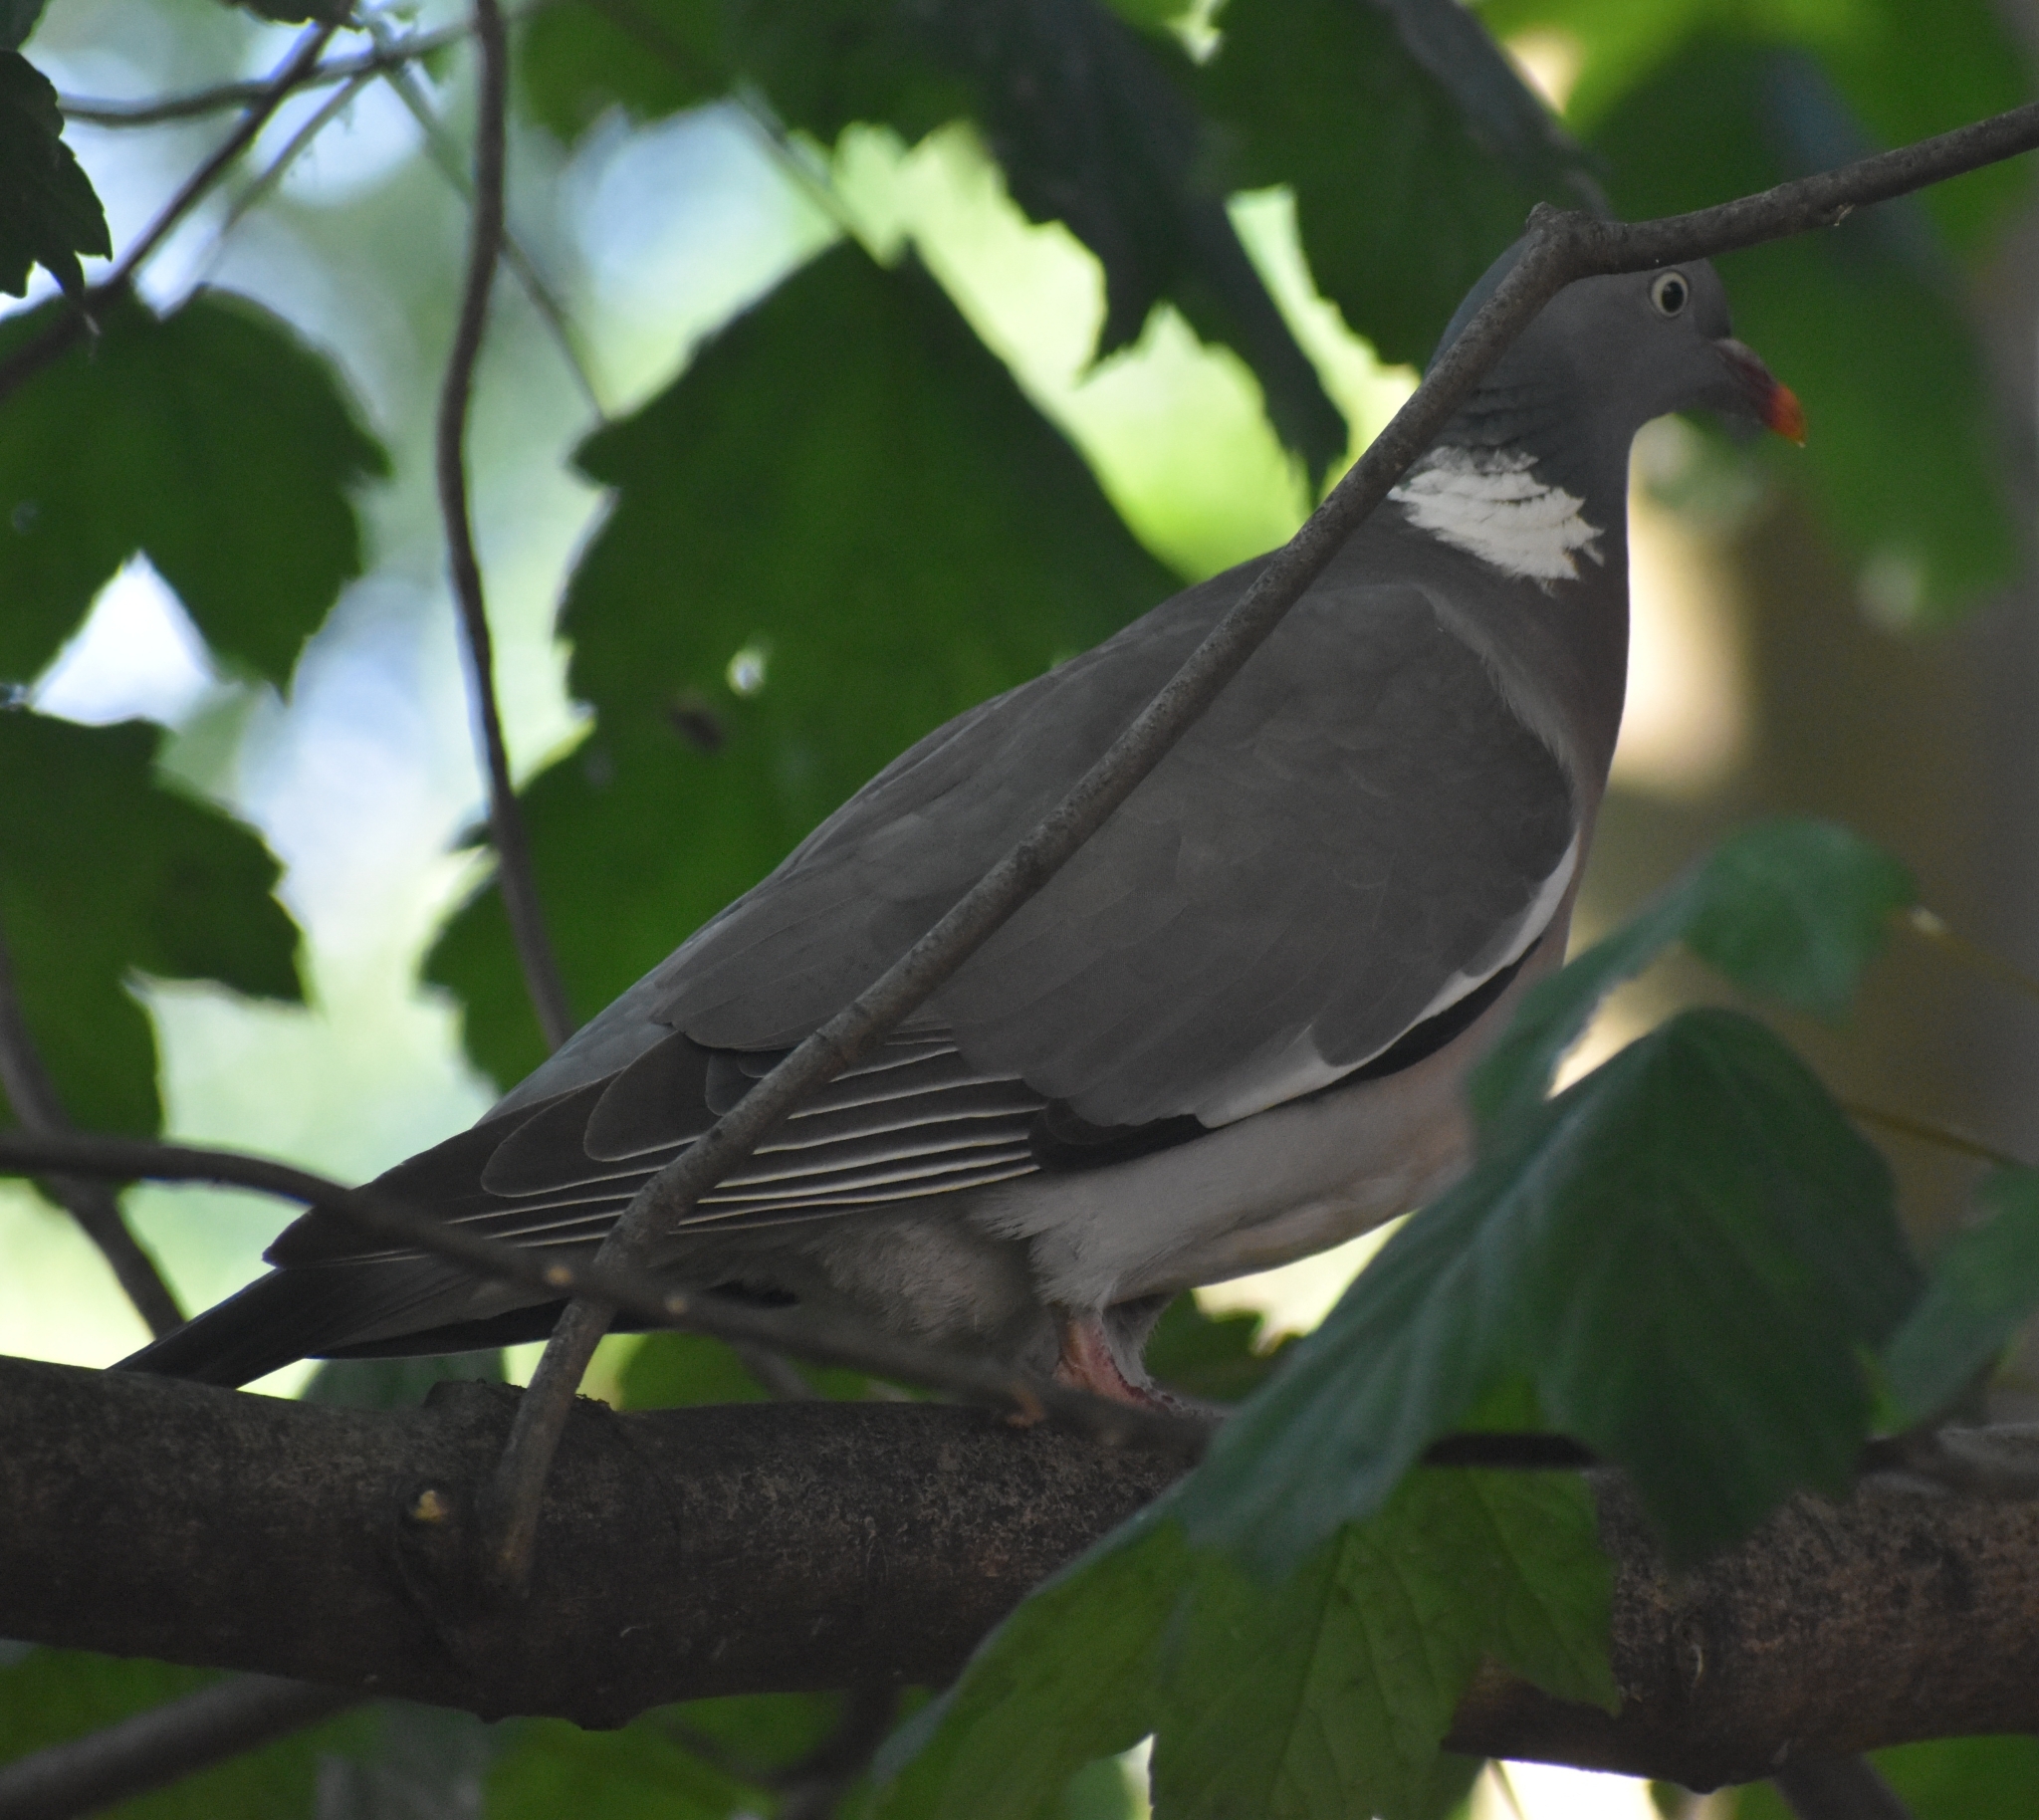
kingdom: Animalia
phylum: Chordata
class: Aves
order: Columbiformes
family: Columbidae
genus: Columba
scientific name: Columba palumbus
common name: Common wood pigeon
